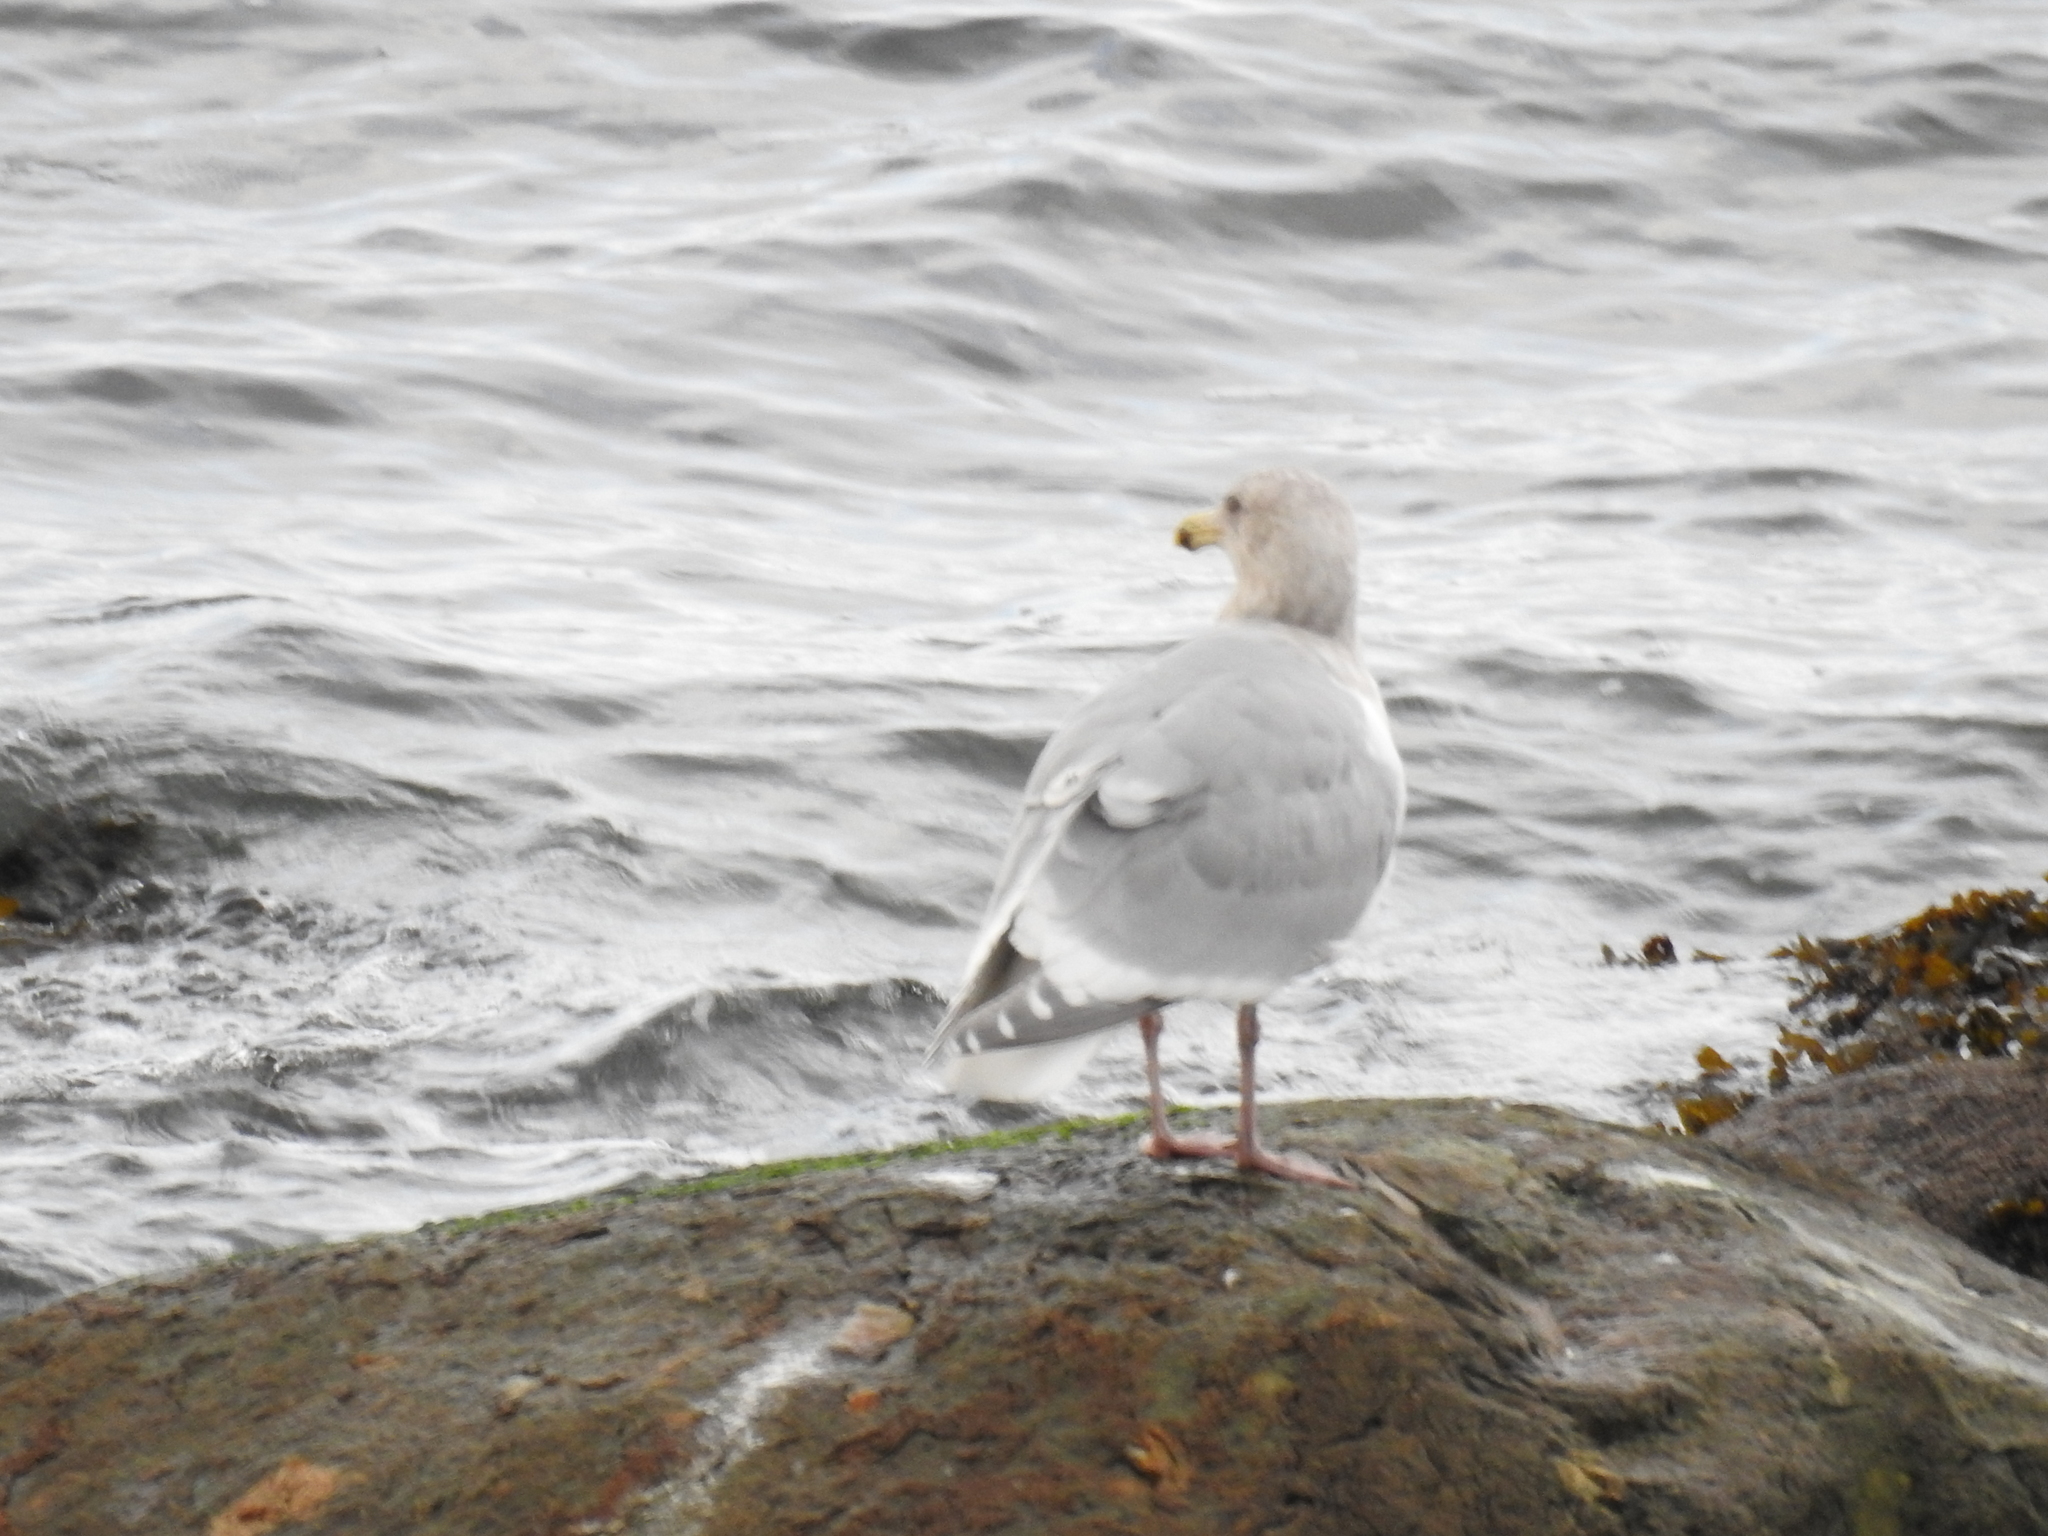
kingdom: Animalia
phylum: Chordata
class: Aves
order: Charadriiformes
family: Laridae
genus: Larus
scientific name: Larus glaucescens
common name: Glaucous-winged gull
